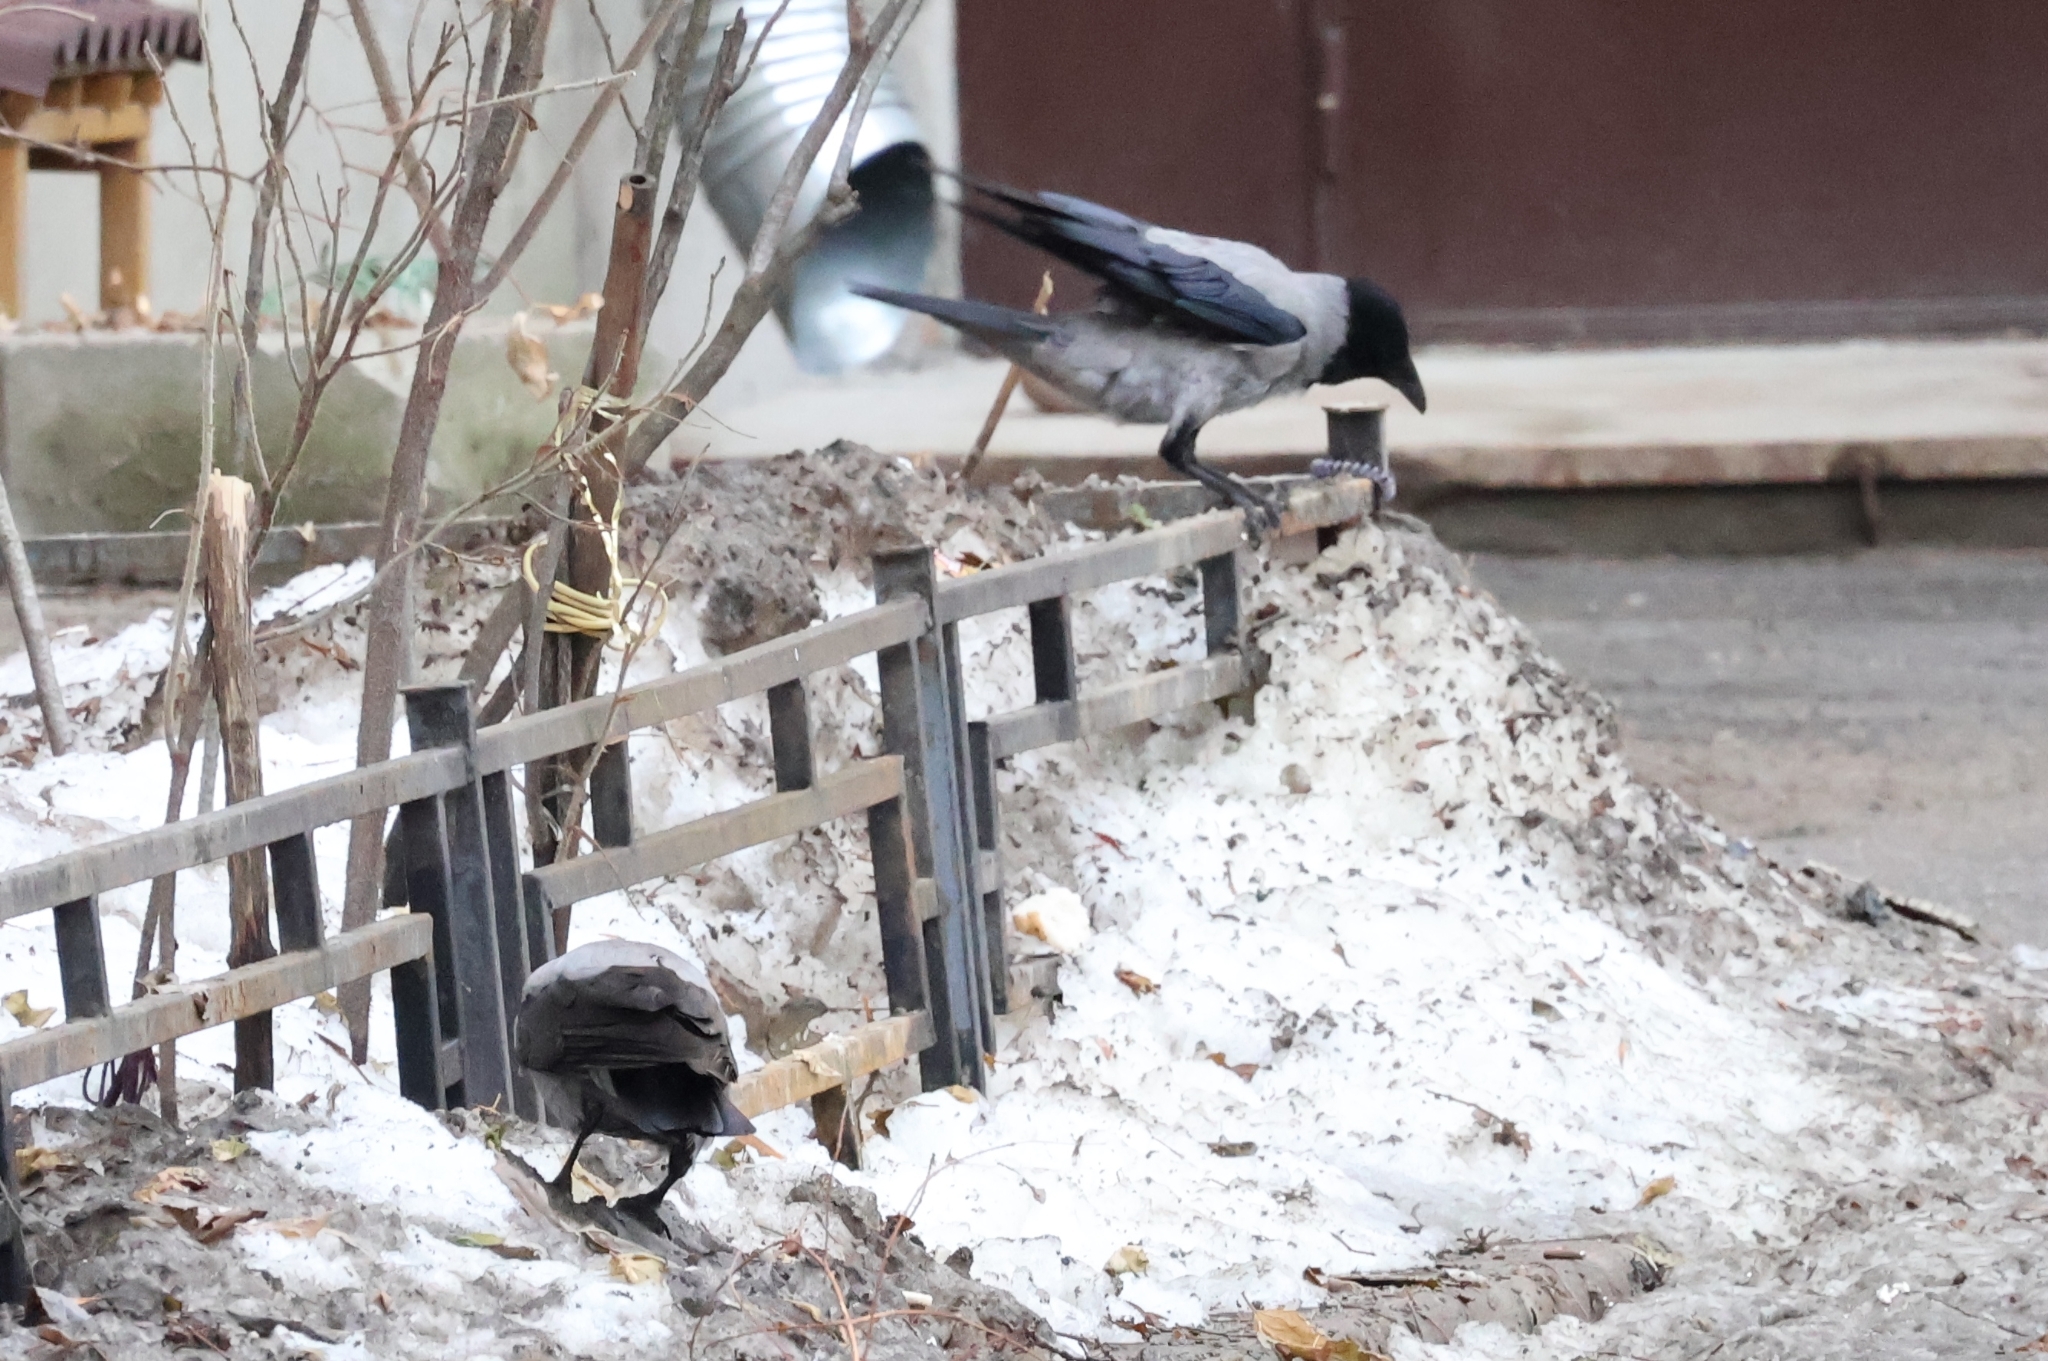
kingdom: Animalia
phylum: Chordata
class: Aves
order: Passeriformes
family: Corvidae
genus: Corvus
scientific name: Corvus cornix
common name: Hooded crow
